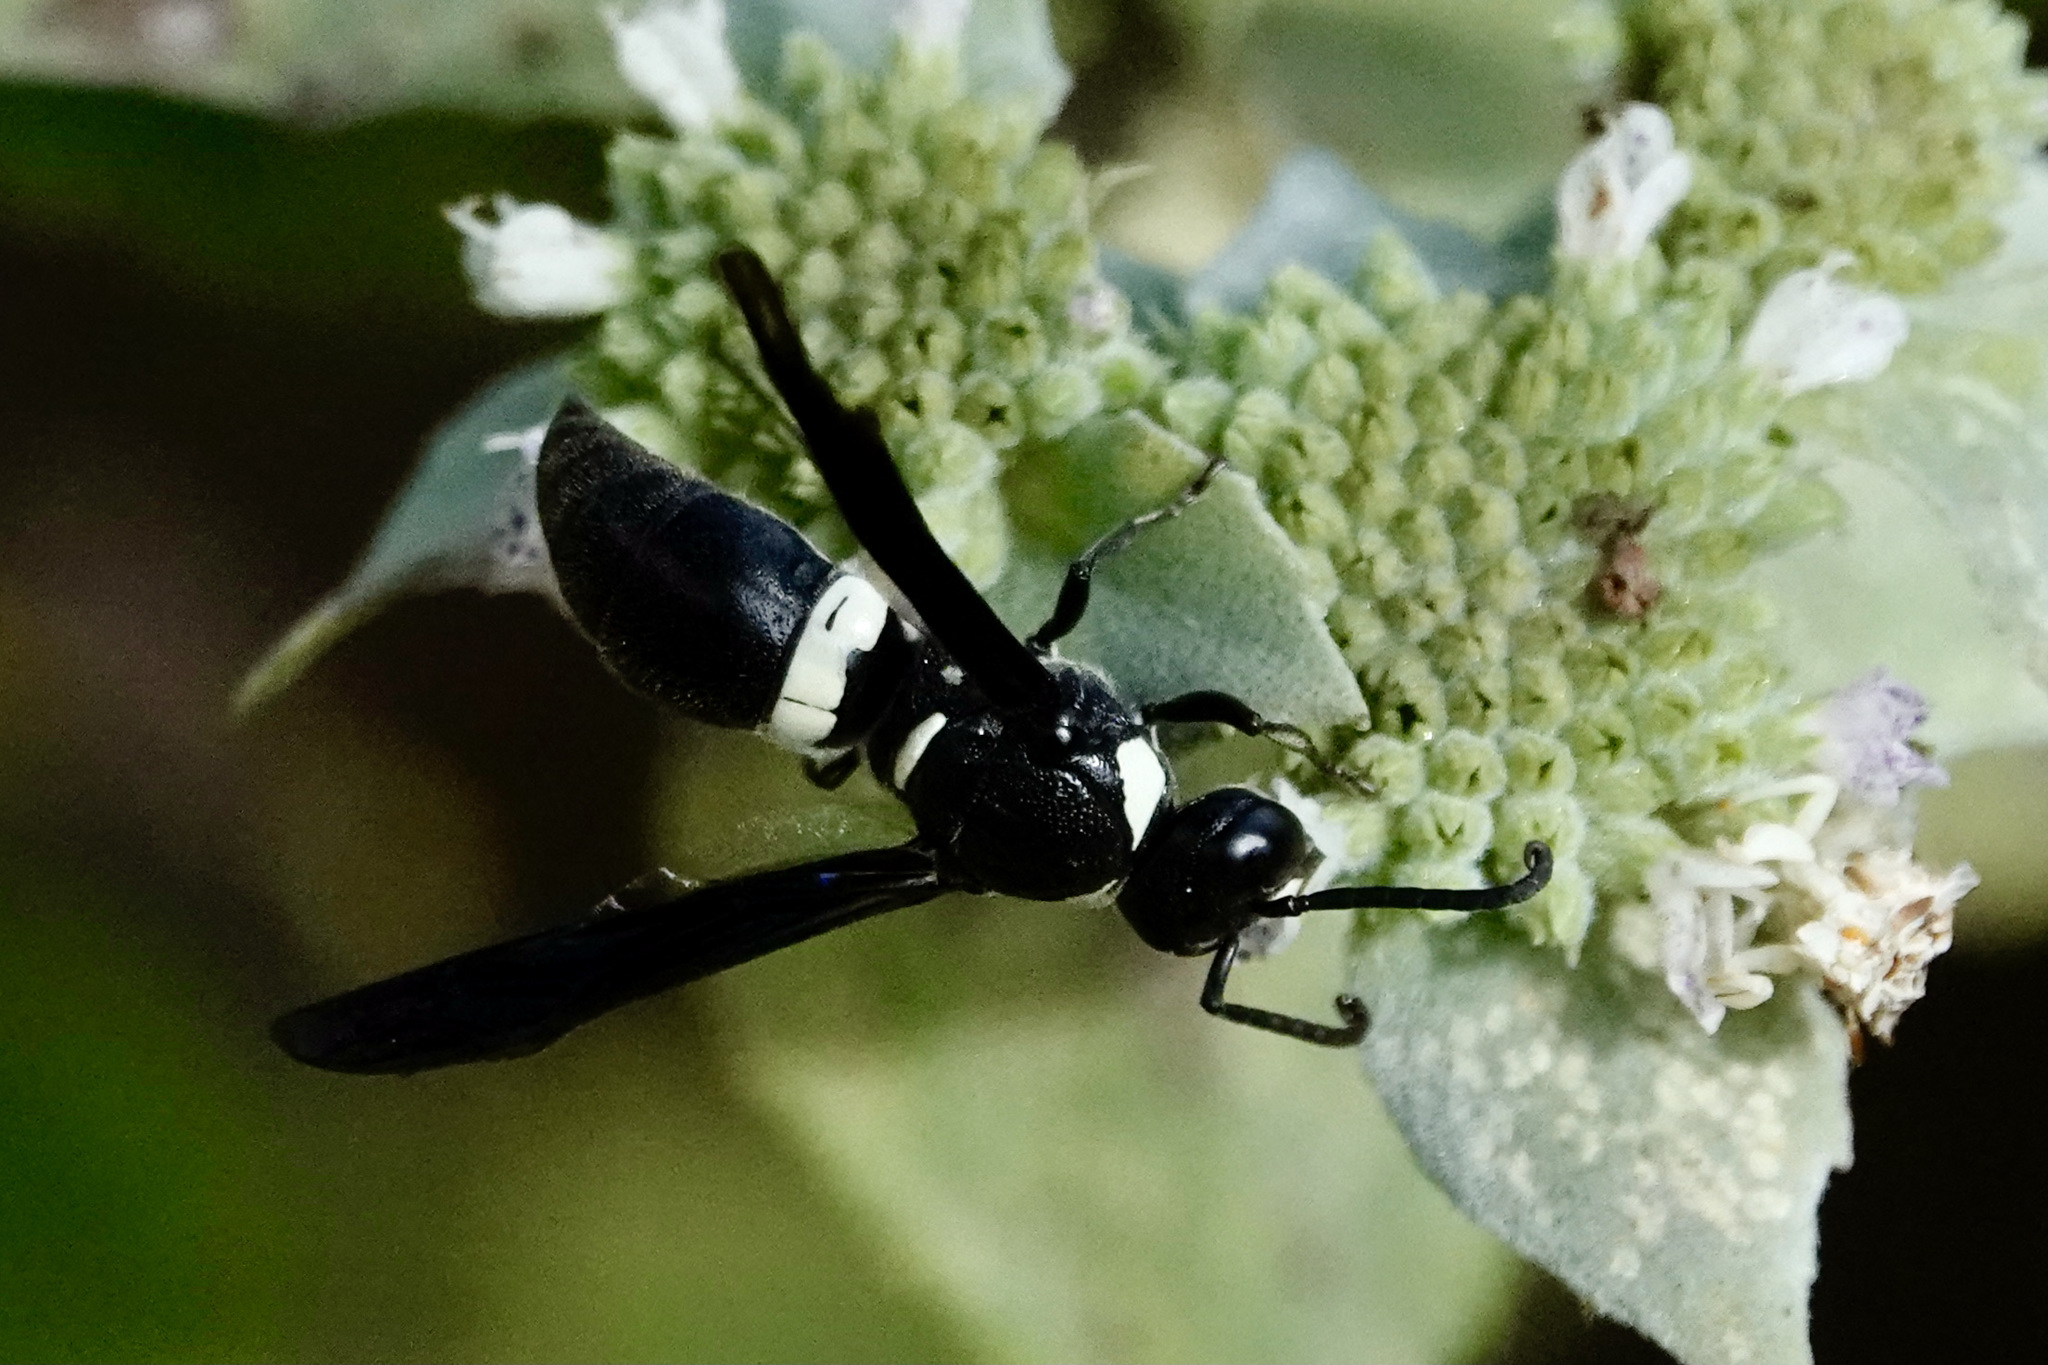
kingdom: Animalia
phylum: Arthropoda
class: Insecta
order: Hymenoptera
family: Eumenidae
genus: Monobia
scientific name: Monobia quadridens
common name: Four-toothed mason wasp
